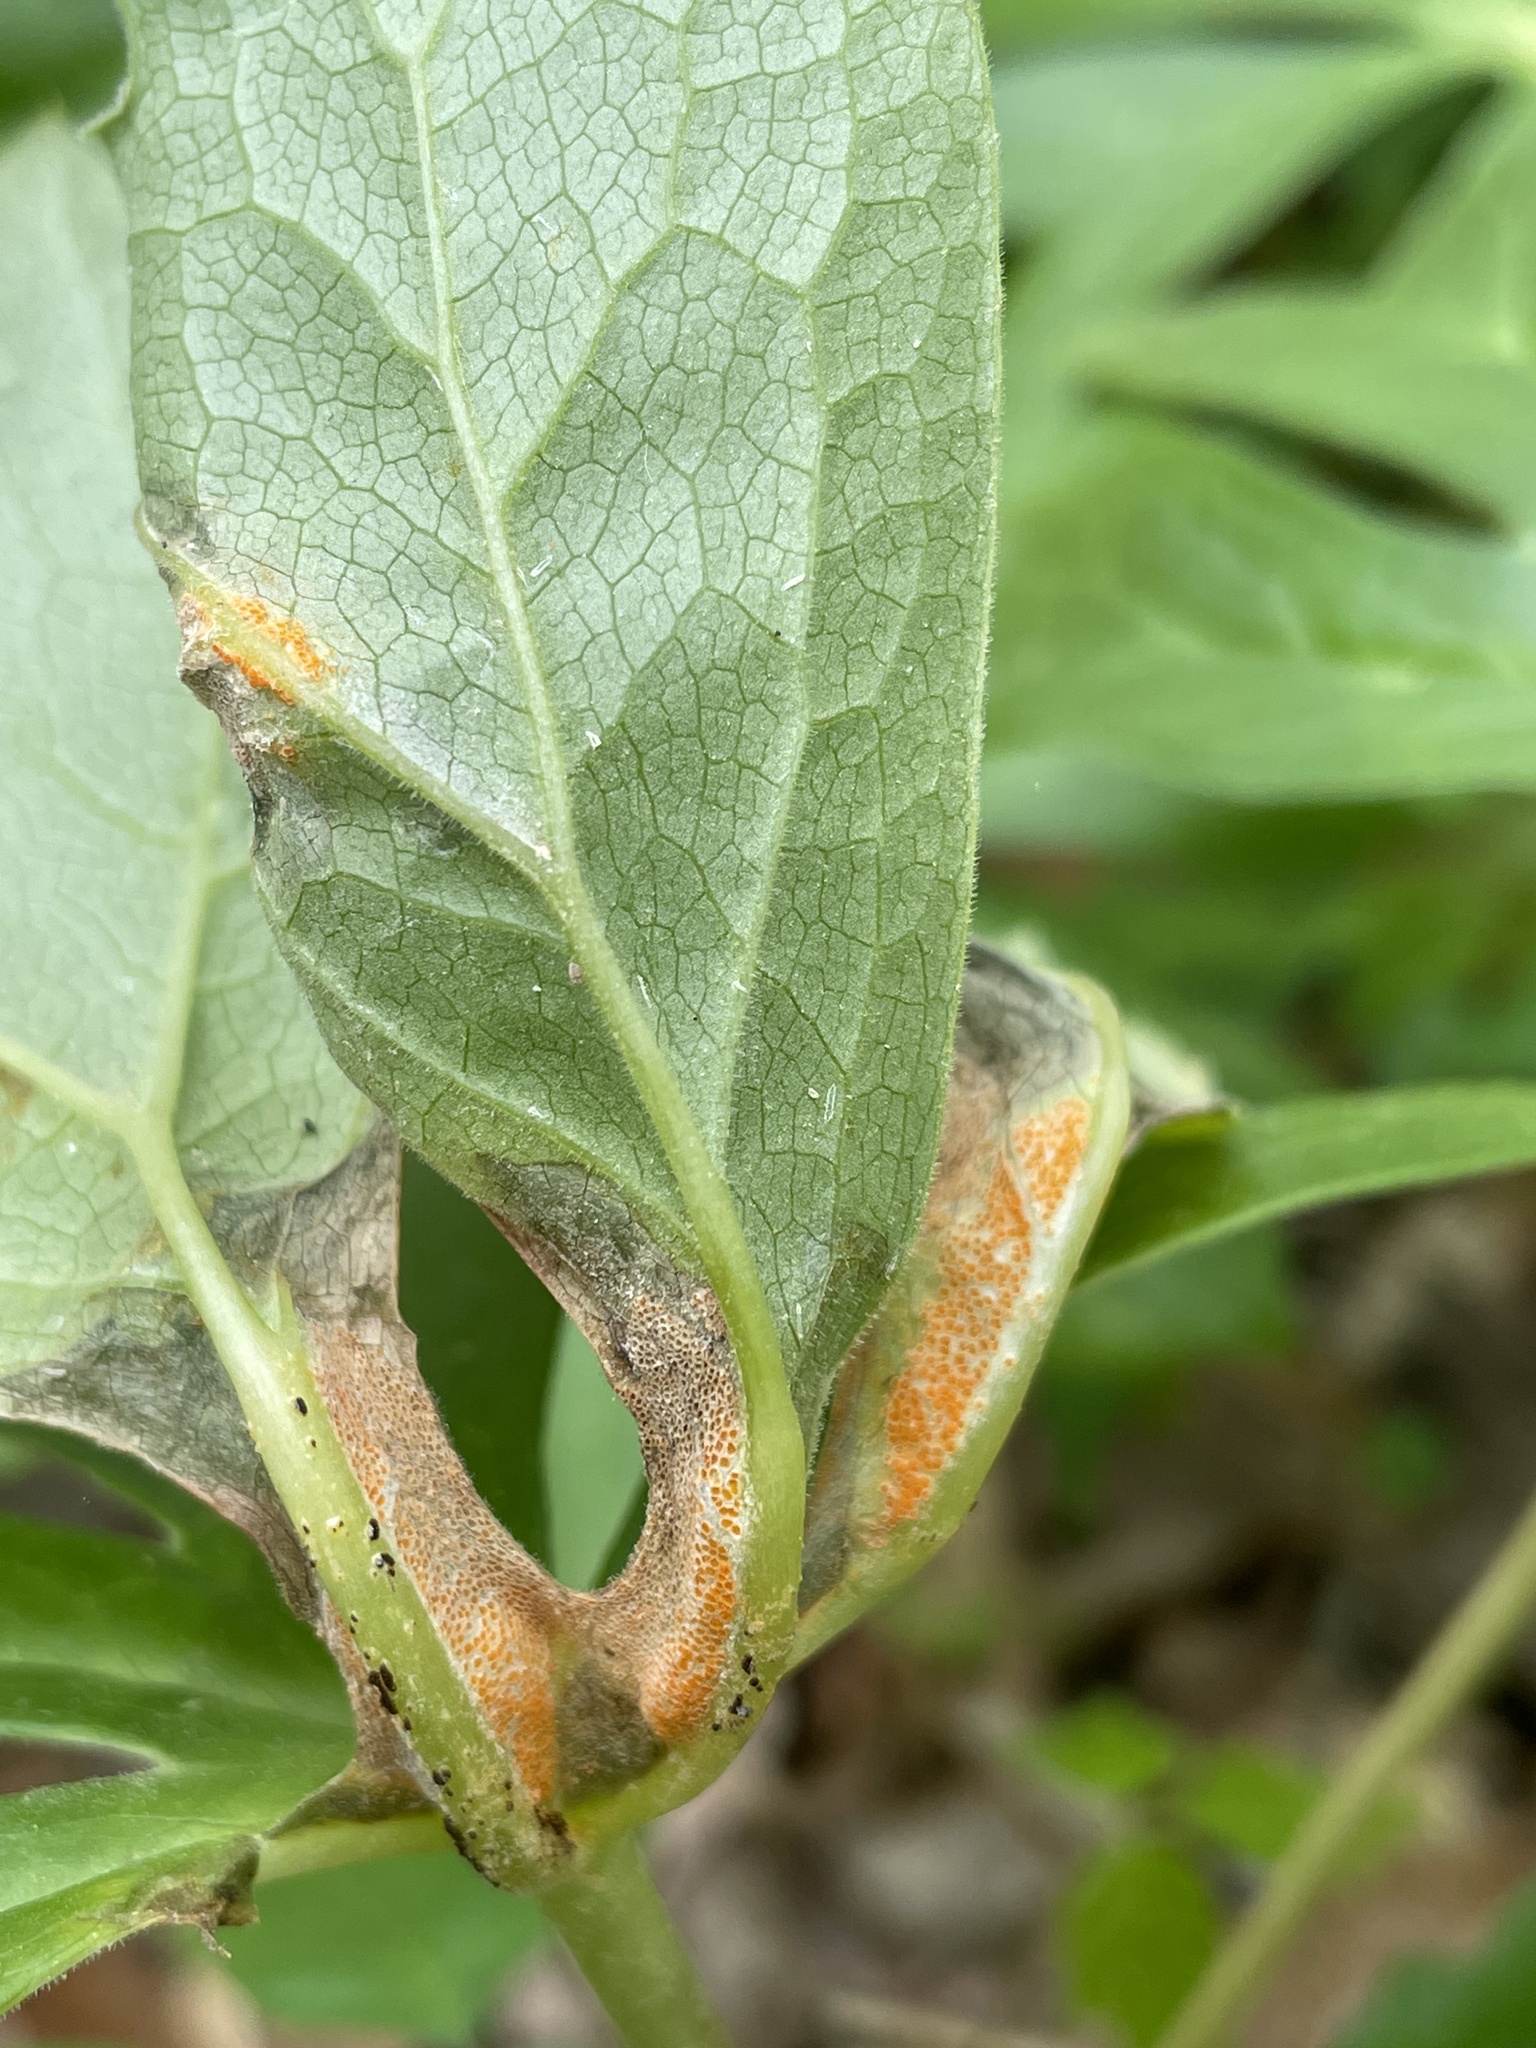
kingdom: Fungi
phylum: Basidiomycota
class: Pucciniomycetes
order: Pucciniales
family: Pucciniaceae
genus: Puccinia
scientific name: Puccinia podophylli
